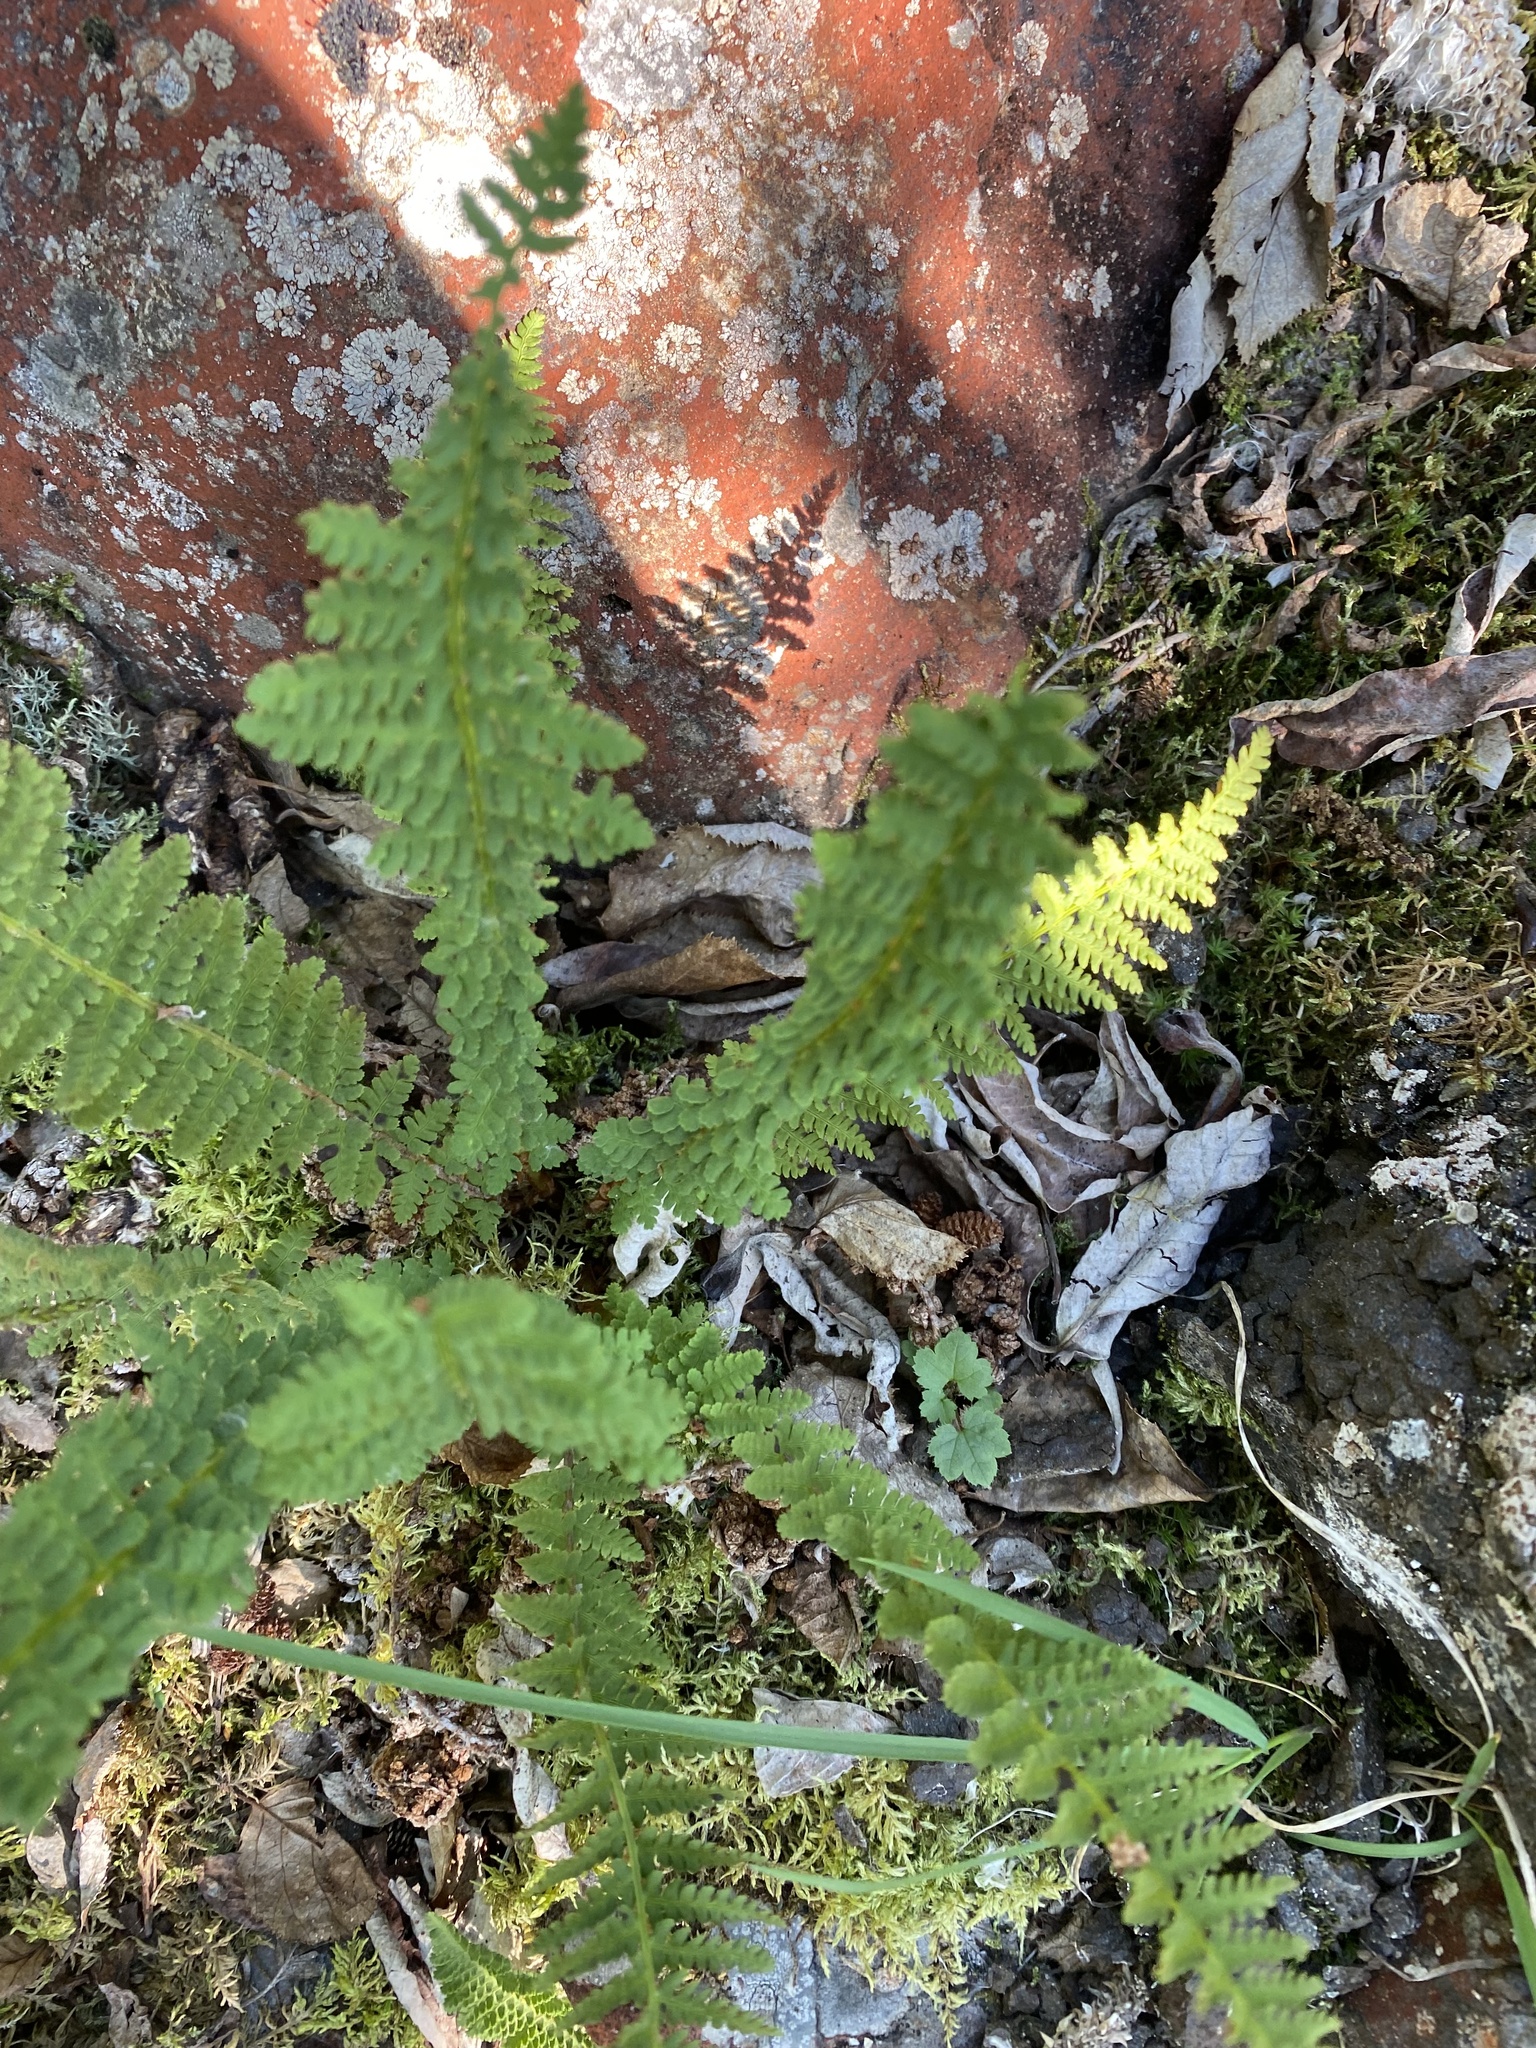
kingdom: Plantae
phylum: Tracheophyta
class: Polypodiopsida
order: Polypodiales
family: Dryopteridaceae
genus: Dryopteris
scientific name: Dryopteris fragrans
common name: Fragrant wood fern
